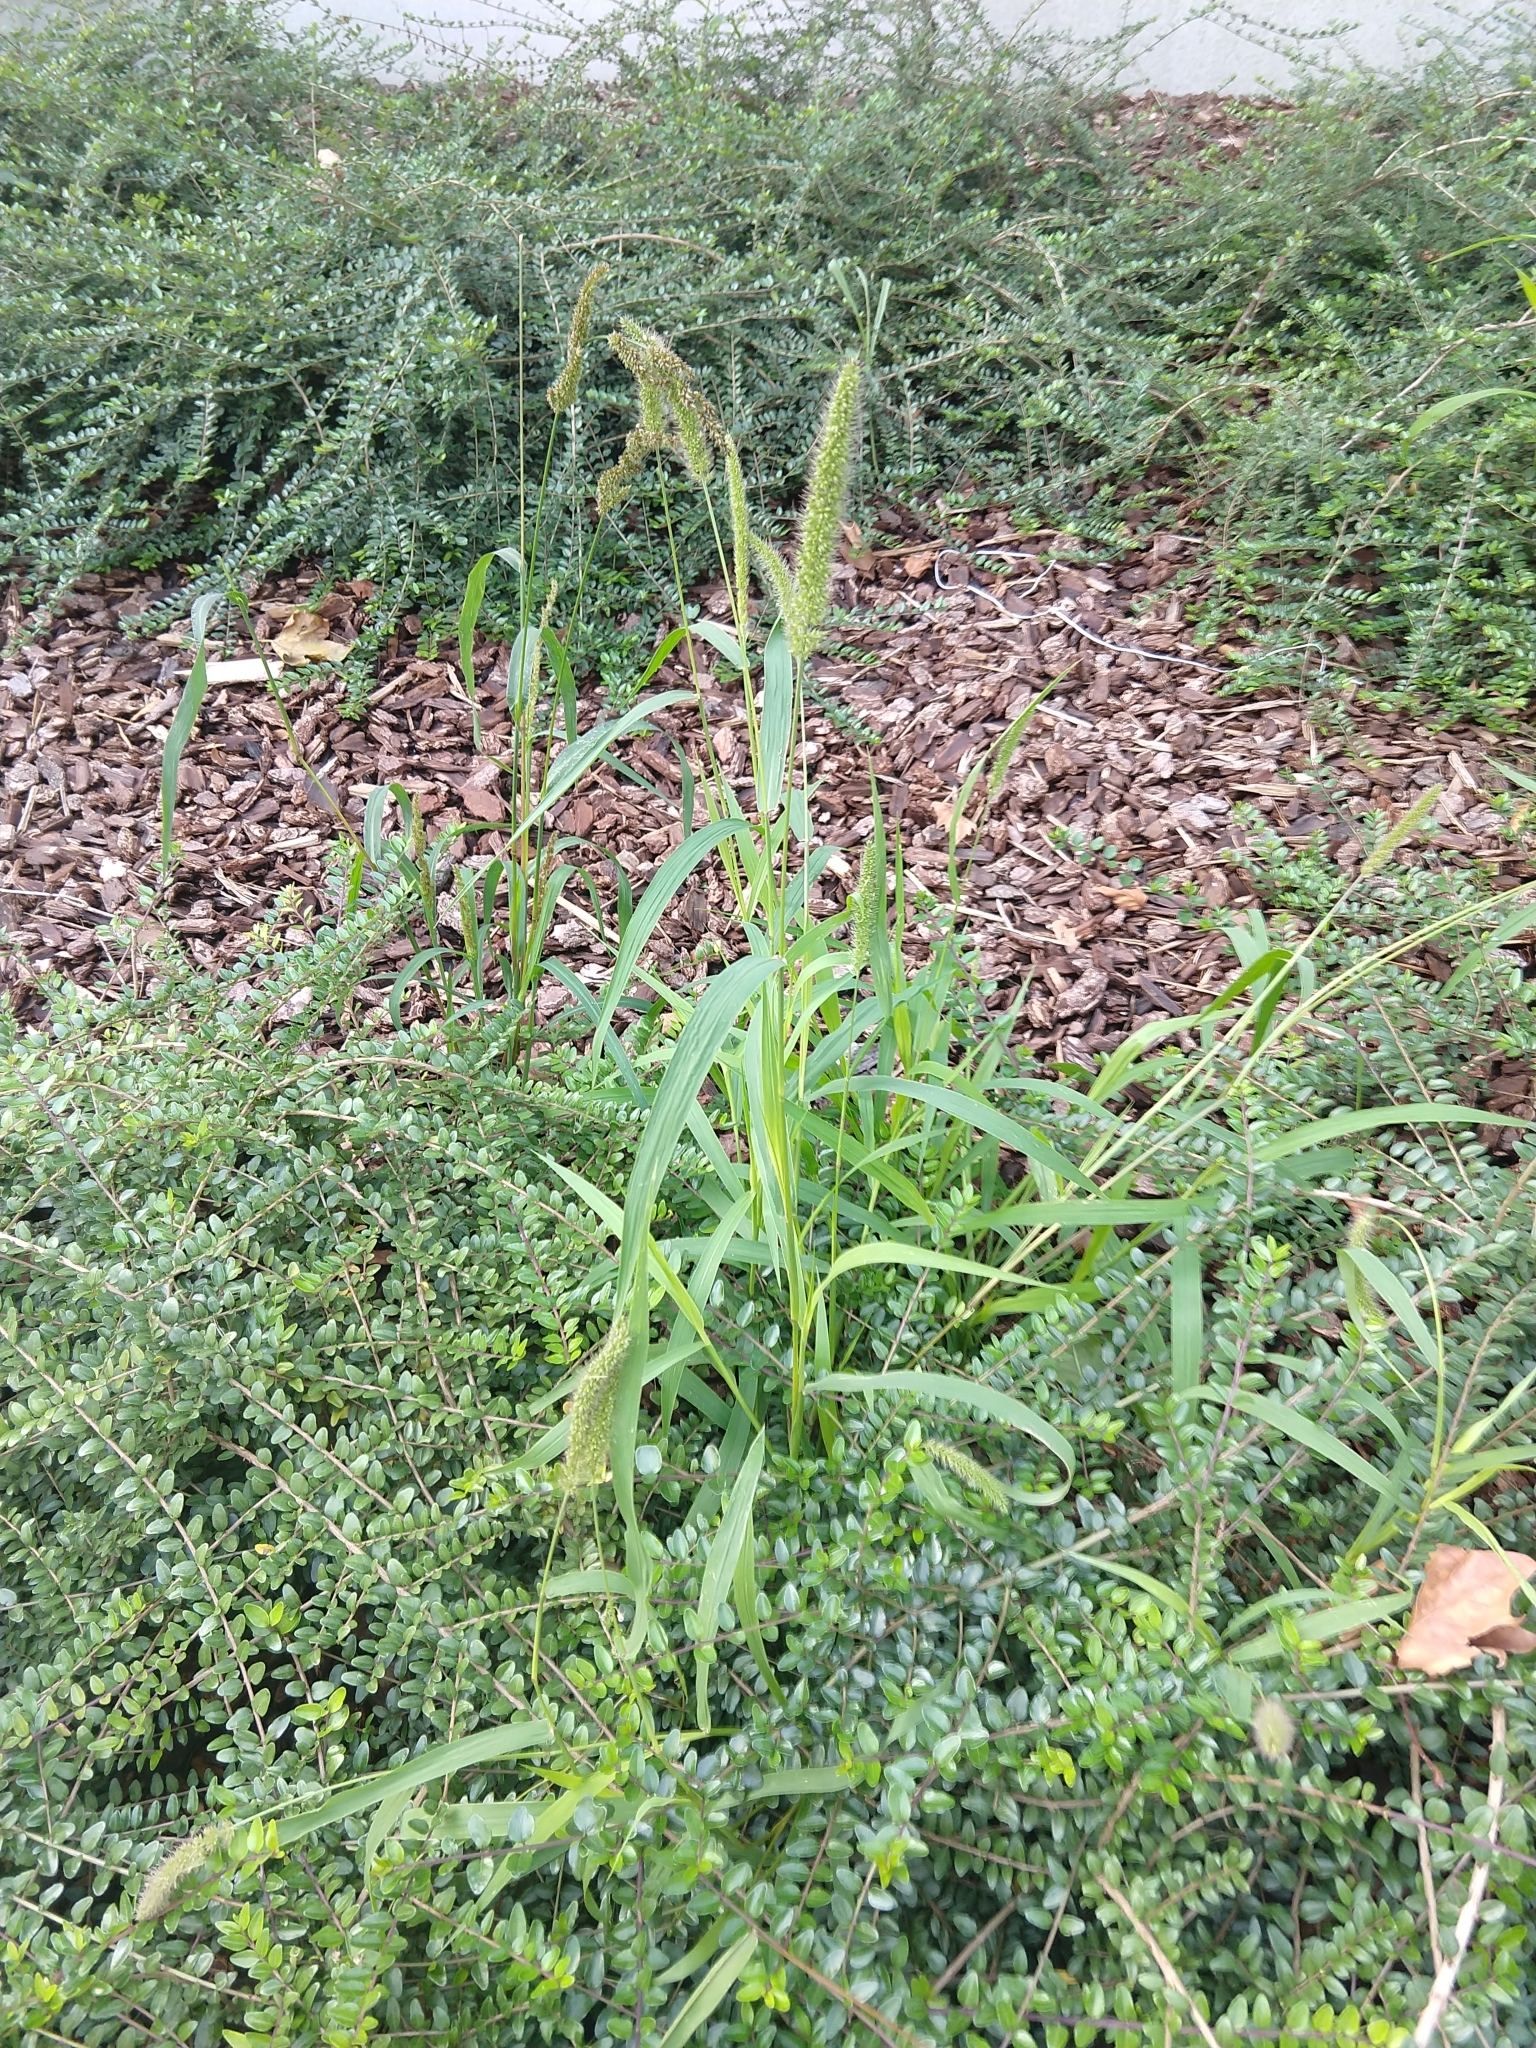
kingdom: Plantae
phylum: Tracheophyta
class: Liliopsida
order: Poales
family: Poaceae
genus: Setaria
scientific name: Setaria verticillata
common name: Hooked bristlegrass
